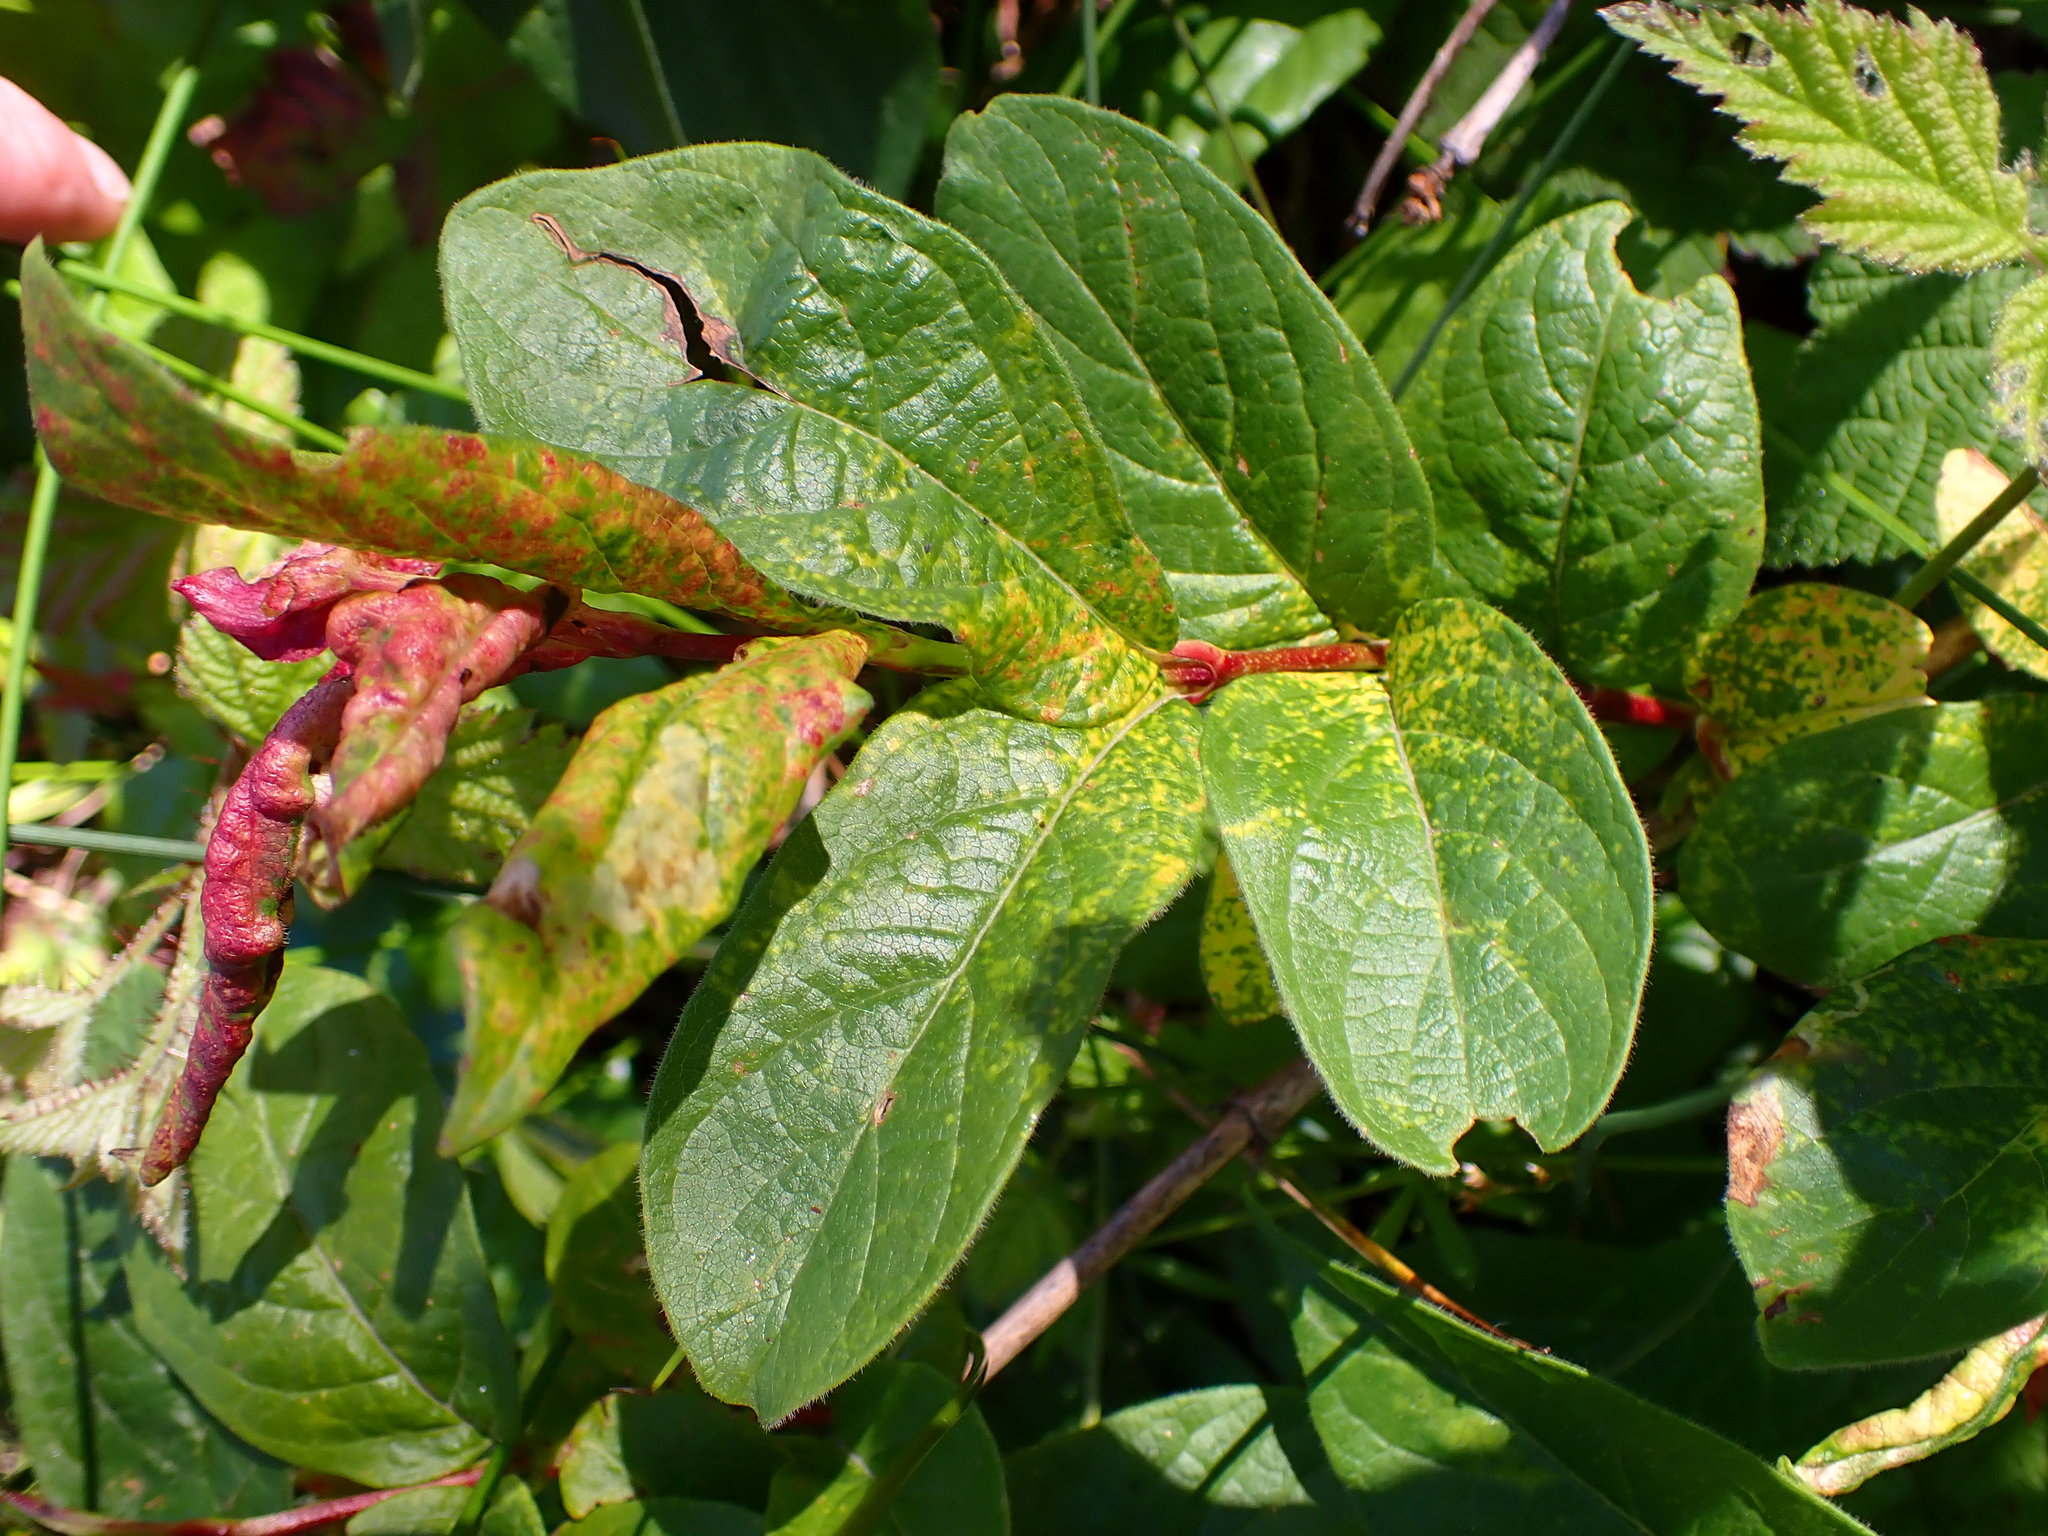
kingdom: Plantae
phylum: Tracheophyta
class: Magnoliopsida
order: Dipsacales
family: Caprifoliaceae
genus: Lonicera
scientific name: Lonicera involucrata
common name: Californian honeysuckle
